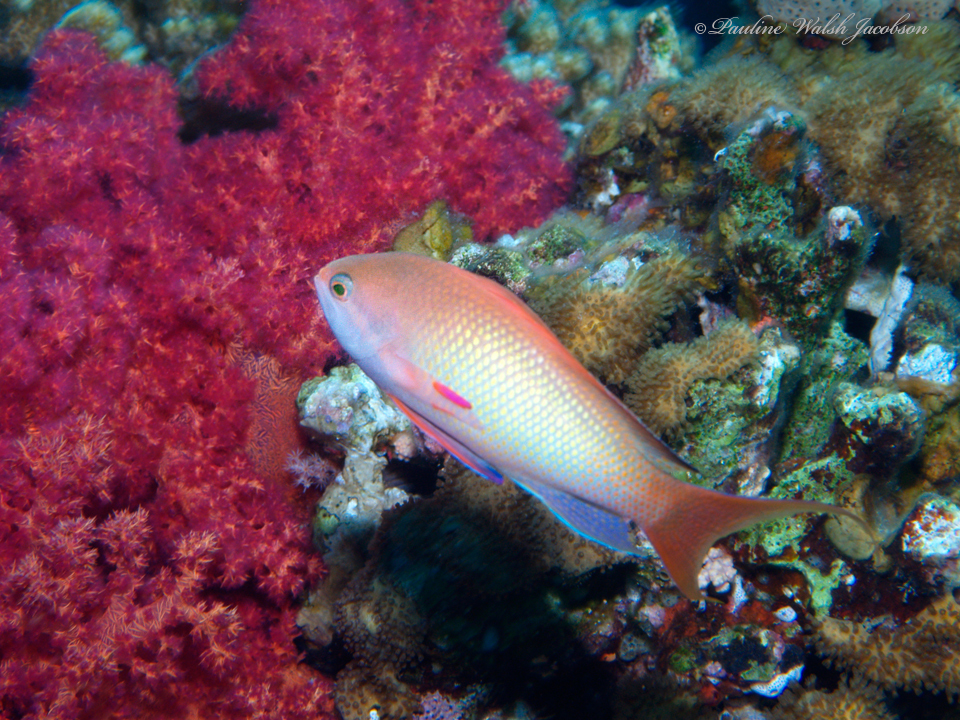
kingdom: Animalia
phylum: Chordata
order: Perciformes
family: Serranidae
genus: Pseudanthias
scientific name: Pseudanthias squamipinnis
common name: Scalefin anthias
